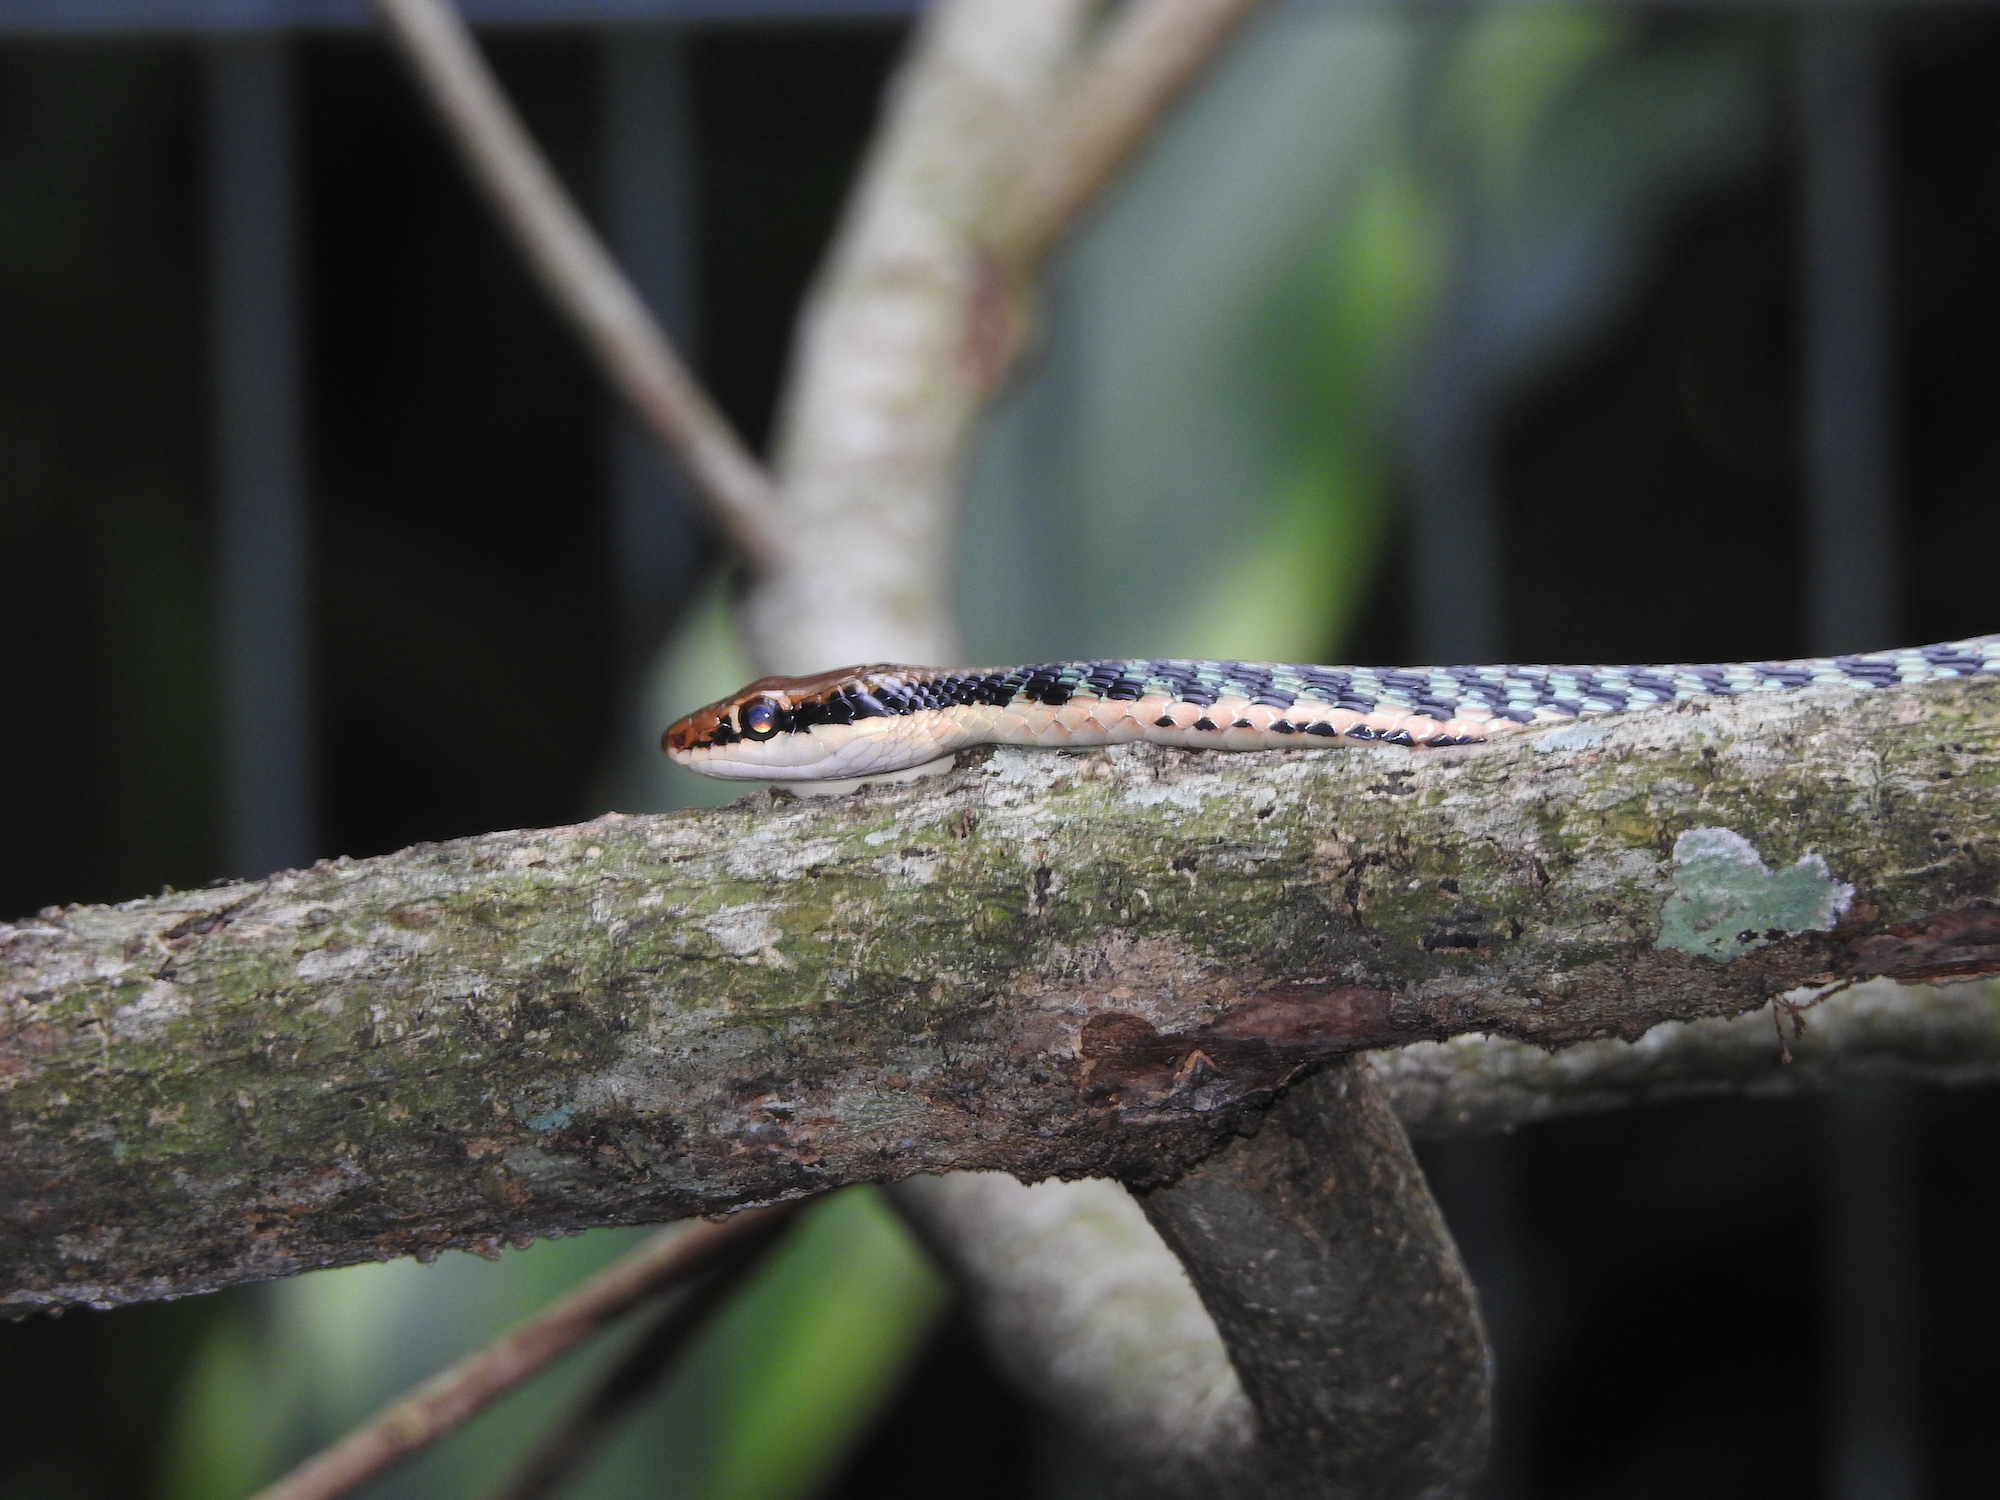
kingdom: Animalia
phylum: Chordata
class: Squamata
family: Colubridae
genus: Dendrelaphis
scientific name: Dendrelaphis pictus
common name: Indonesian bronze-back
